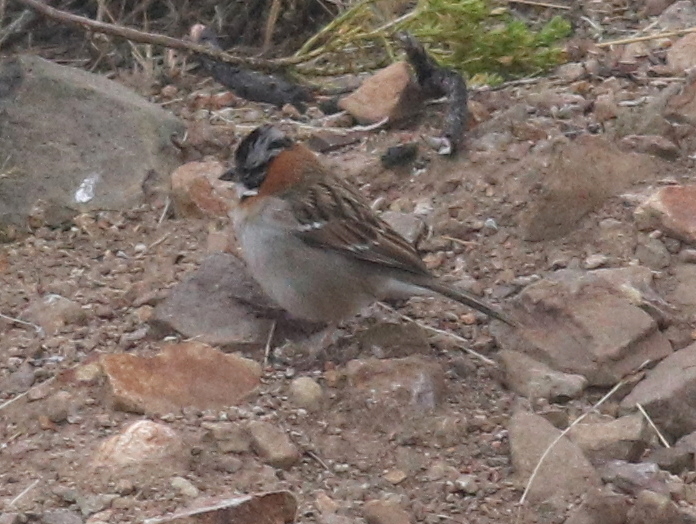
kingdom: Animalia
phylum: Chordata
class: Aves
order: Passeriformes
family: Passerellidae
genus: Zonotrichia
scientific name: Zonotrichia capensis
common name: Rufous-collared sparrow
